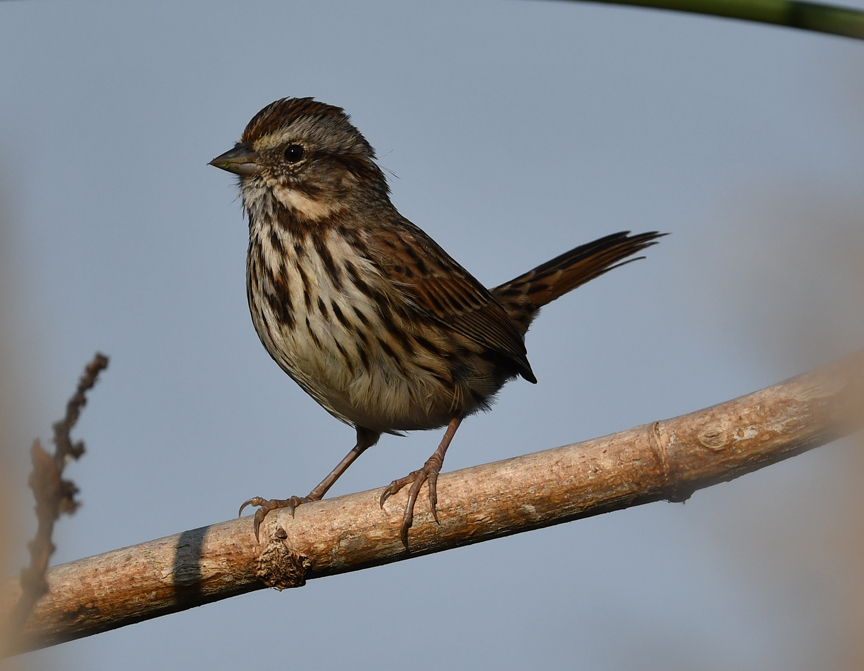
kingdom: Animalia
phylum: Chordata
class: Aves
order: Passeriformes
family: Passerellidae
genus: Melospiza
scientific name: Melospiza melodia
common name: Song sparrow
